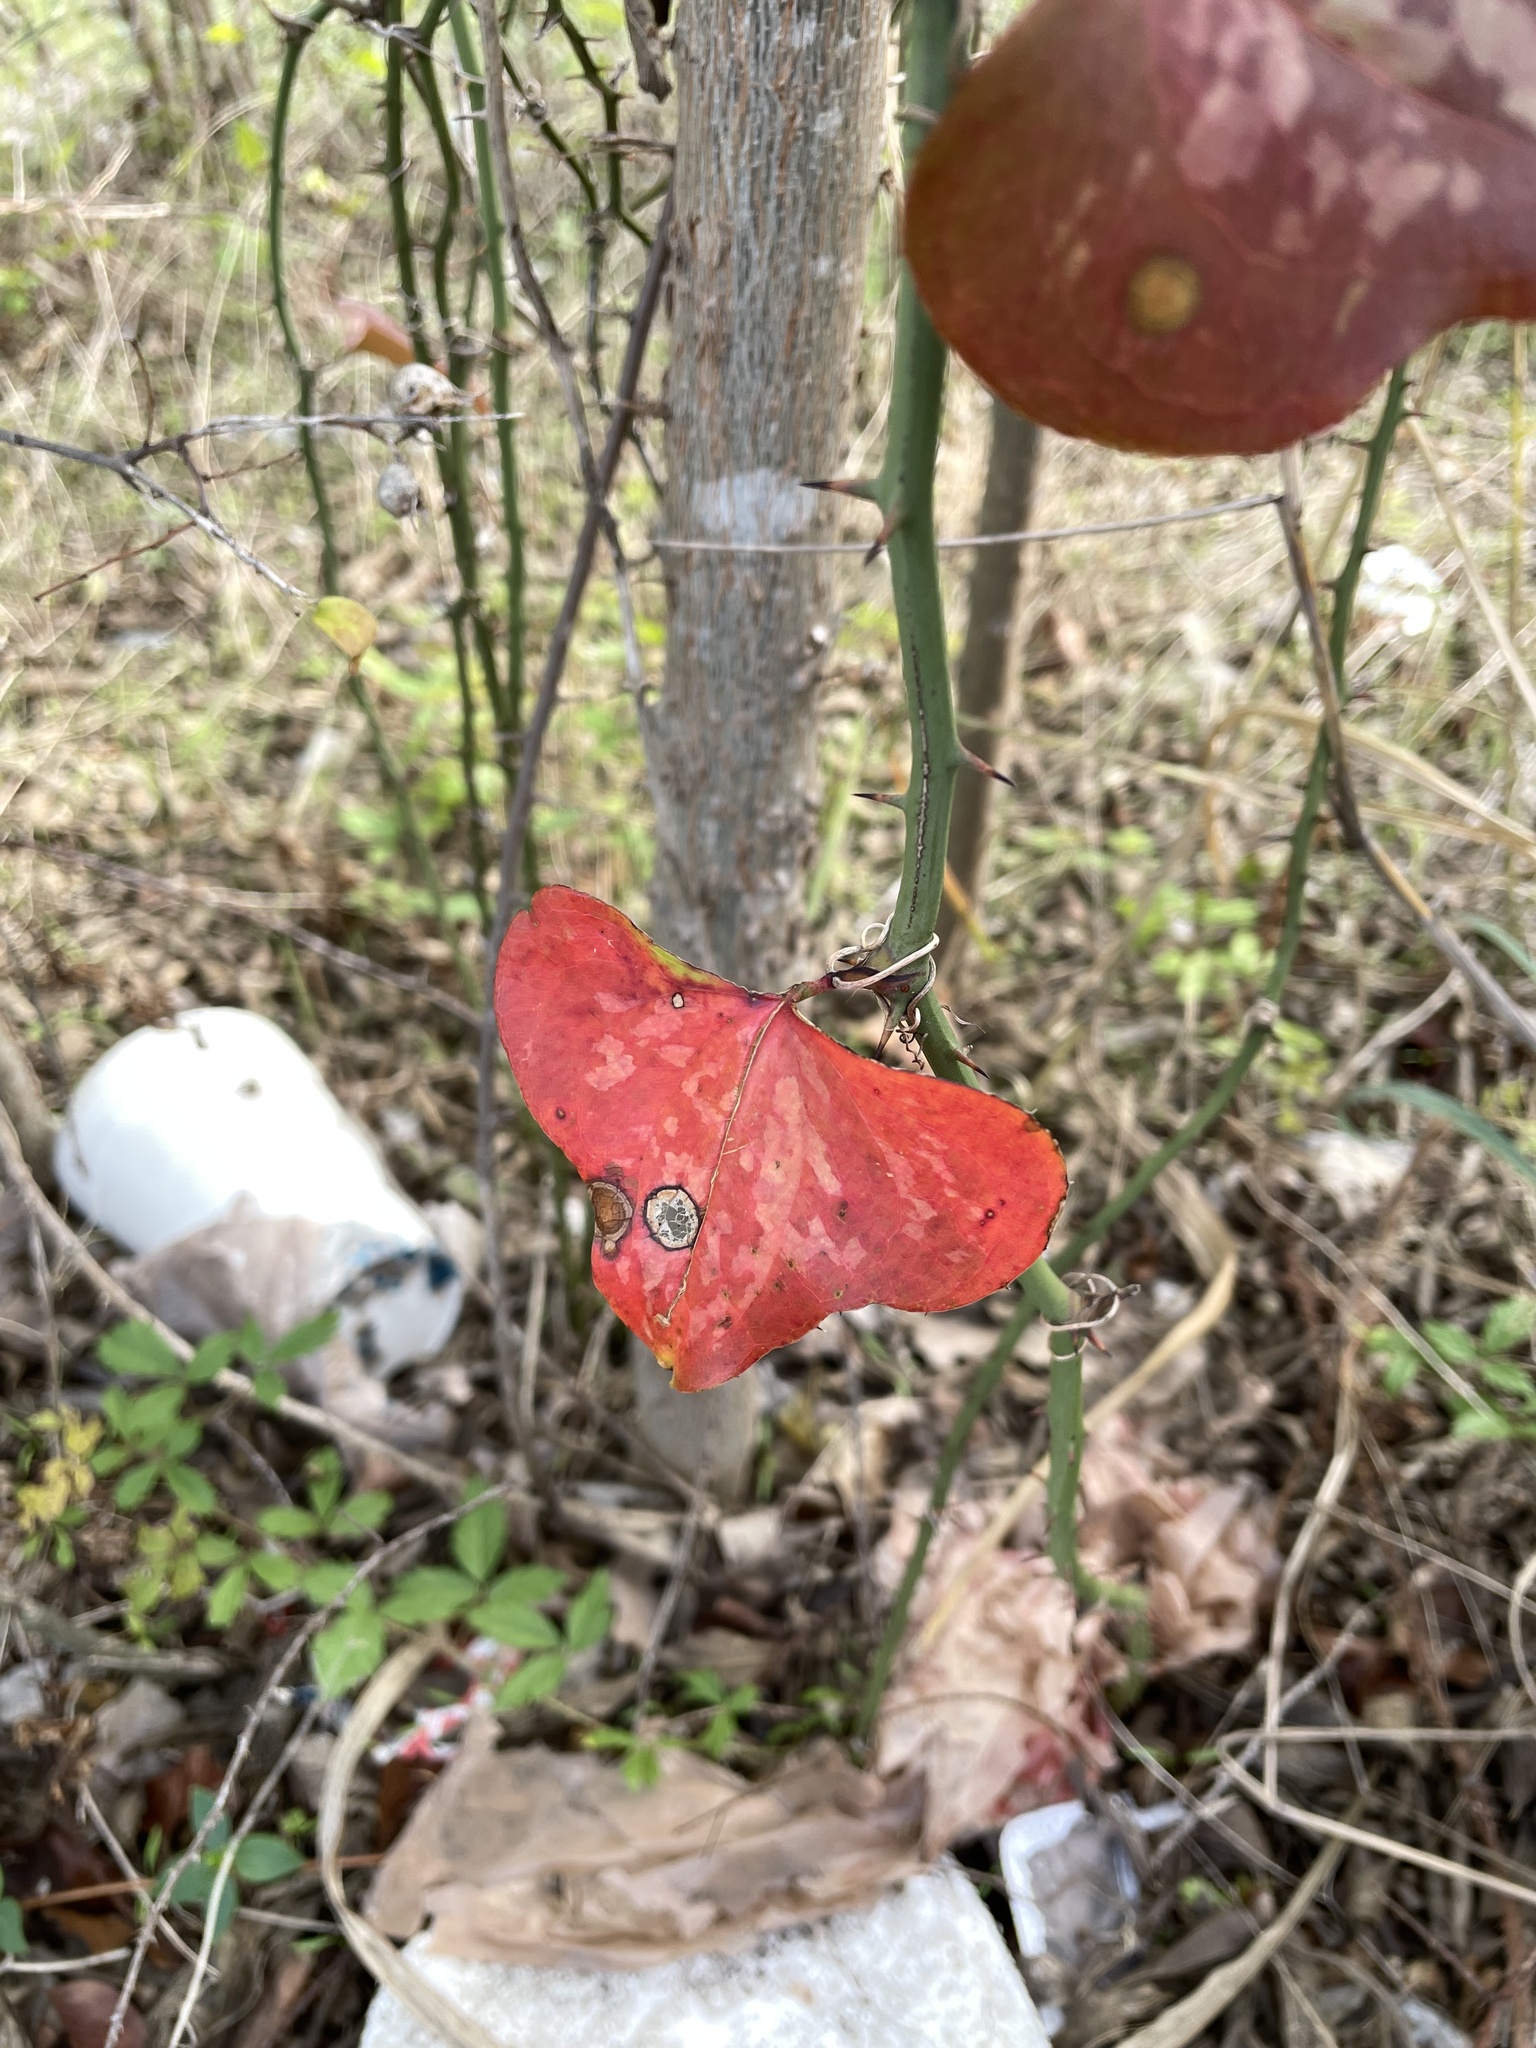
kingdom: Plantae
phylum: Tracheophyta
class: Liliopsida
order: Liliales
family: Smilacaceae
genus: Smilax
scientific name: Smilax bona-nox
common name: Catbrier
